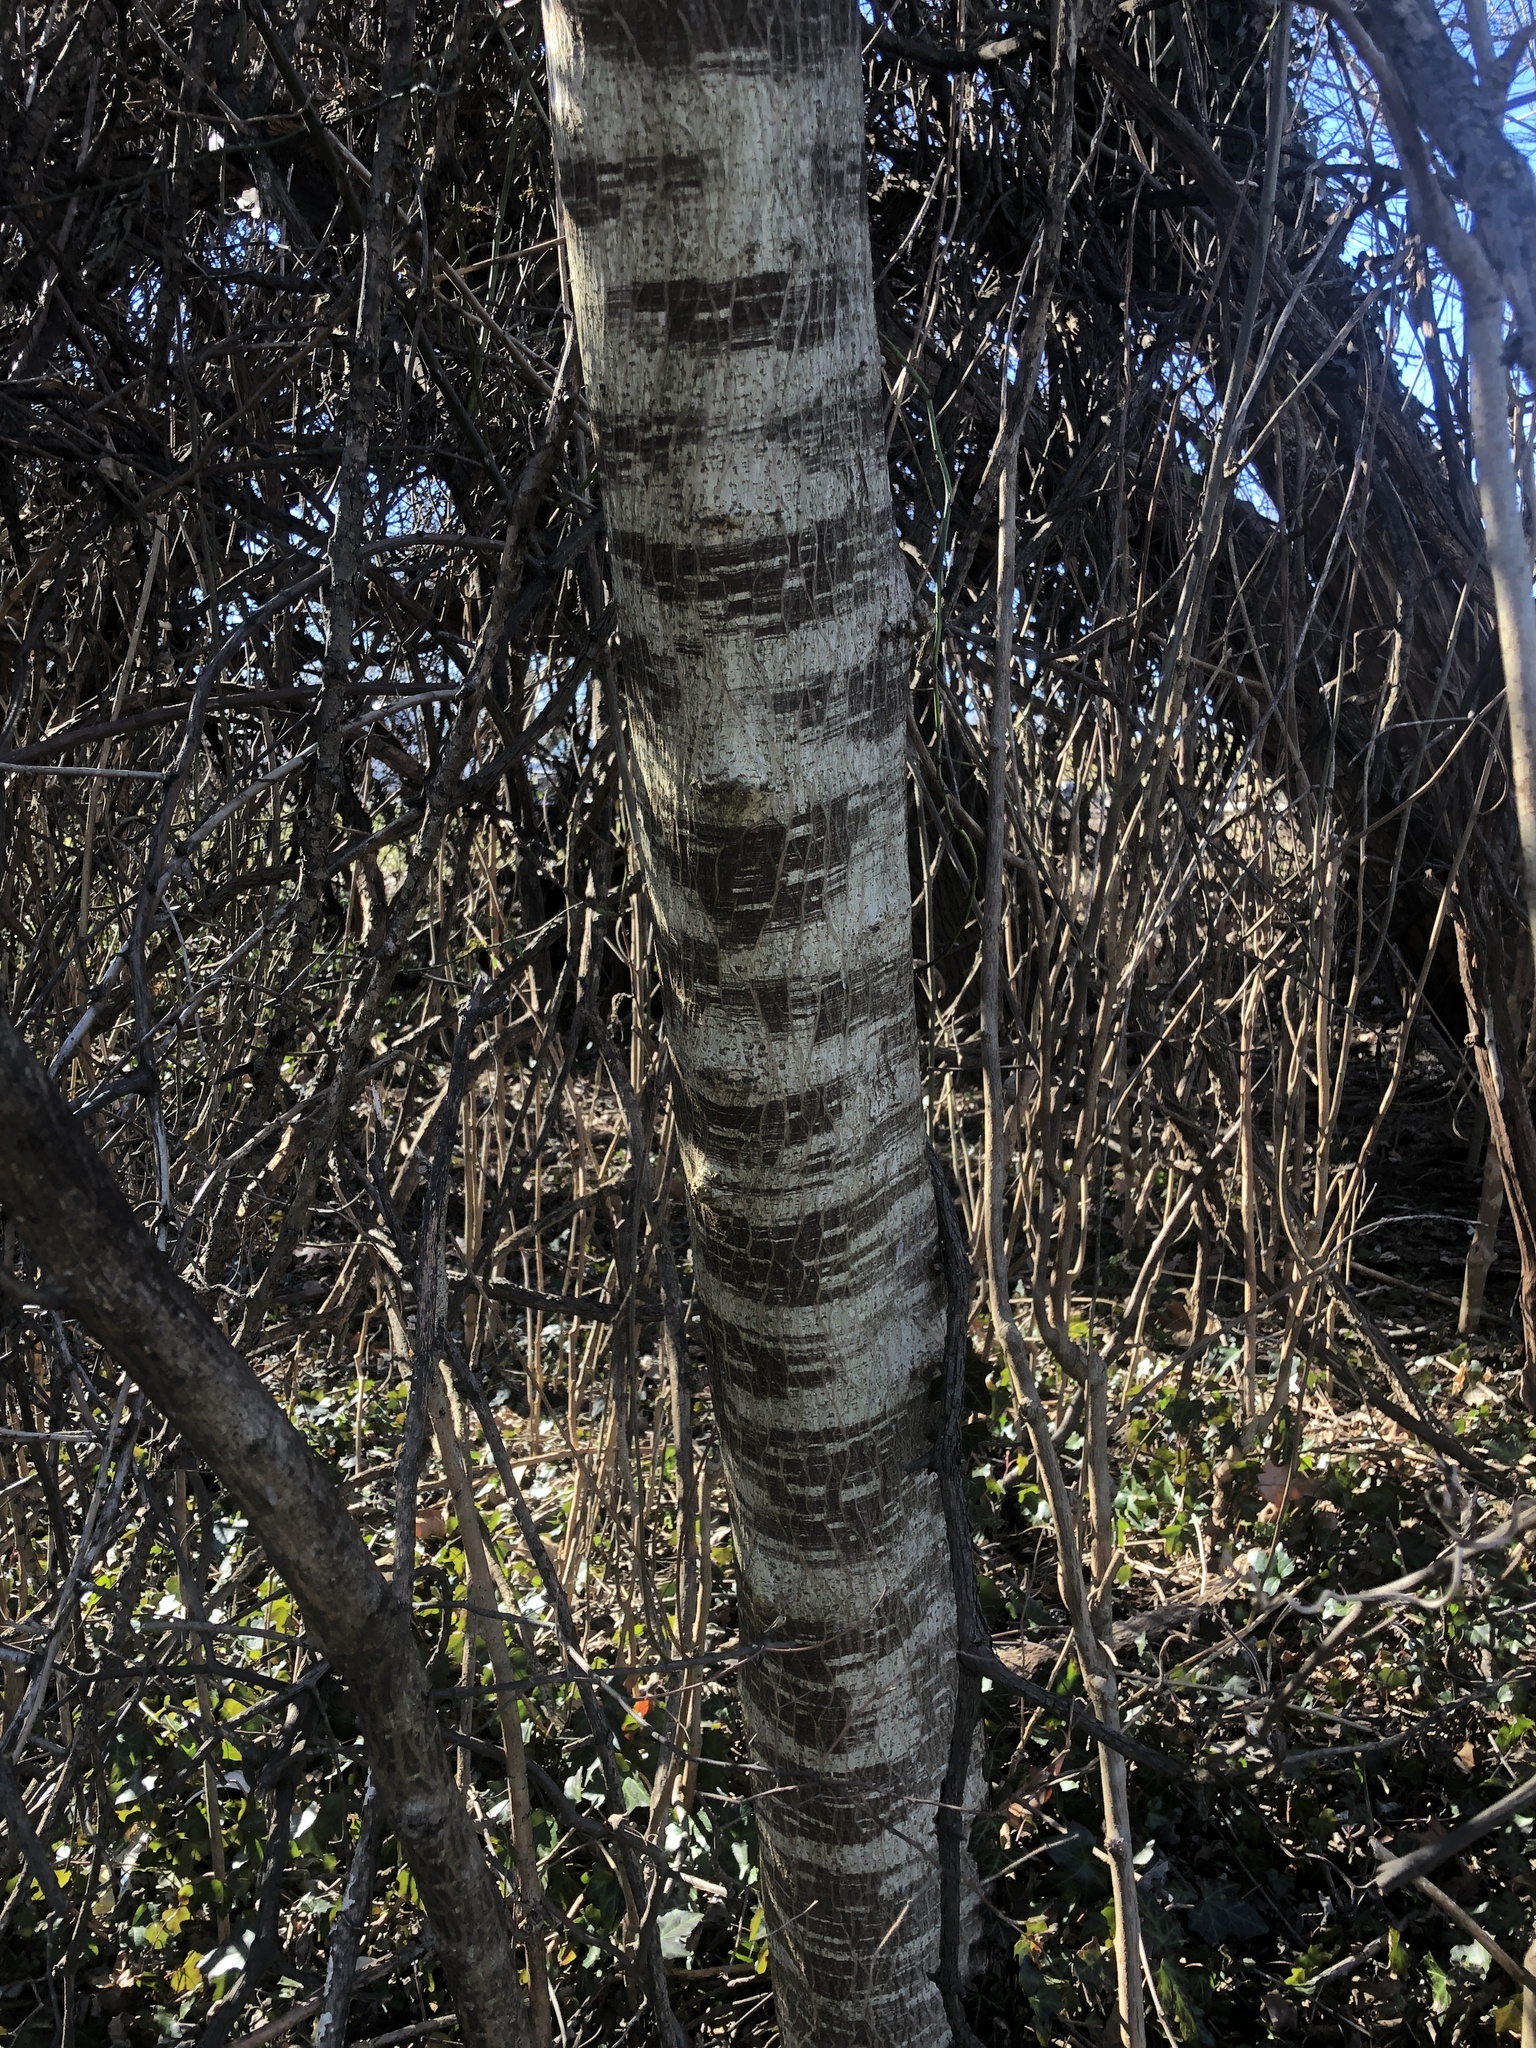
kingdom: Plantae
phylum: Tracheophyta
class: Magnoliopsida
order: Rosales
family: Moraceae
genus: Broussonetia
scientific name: Broussonetia papyrifera
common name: Paper mulberry
